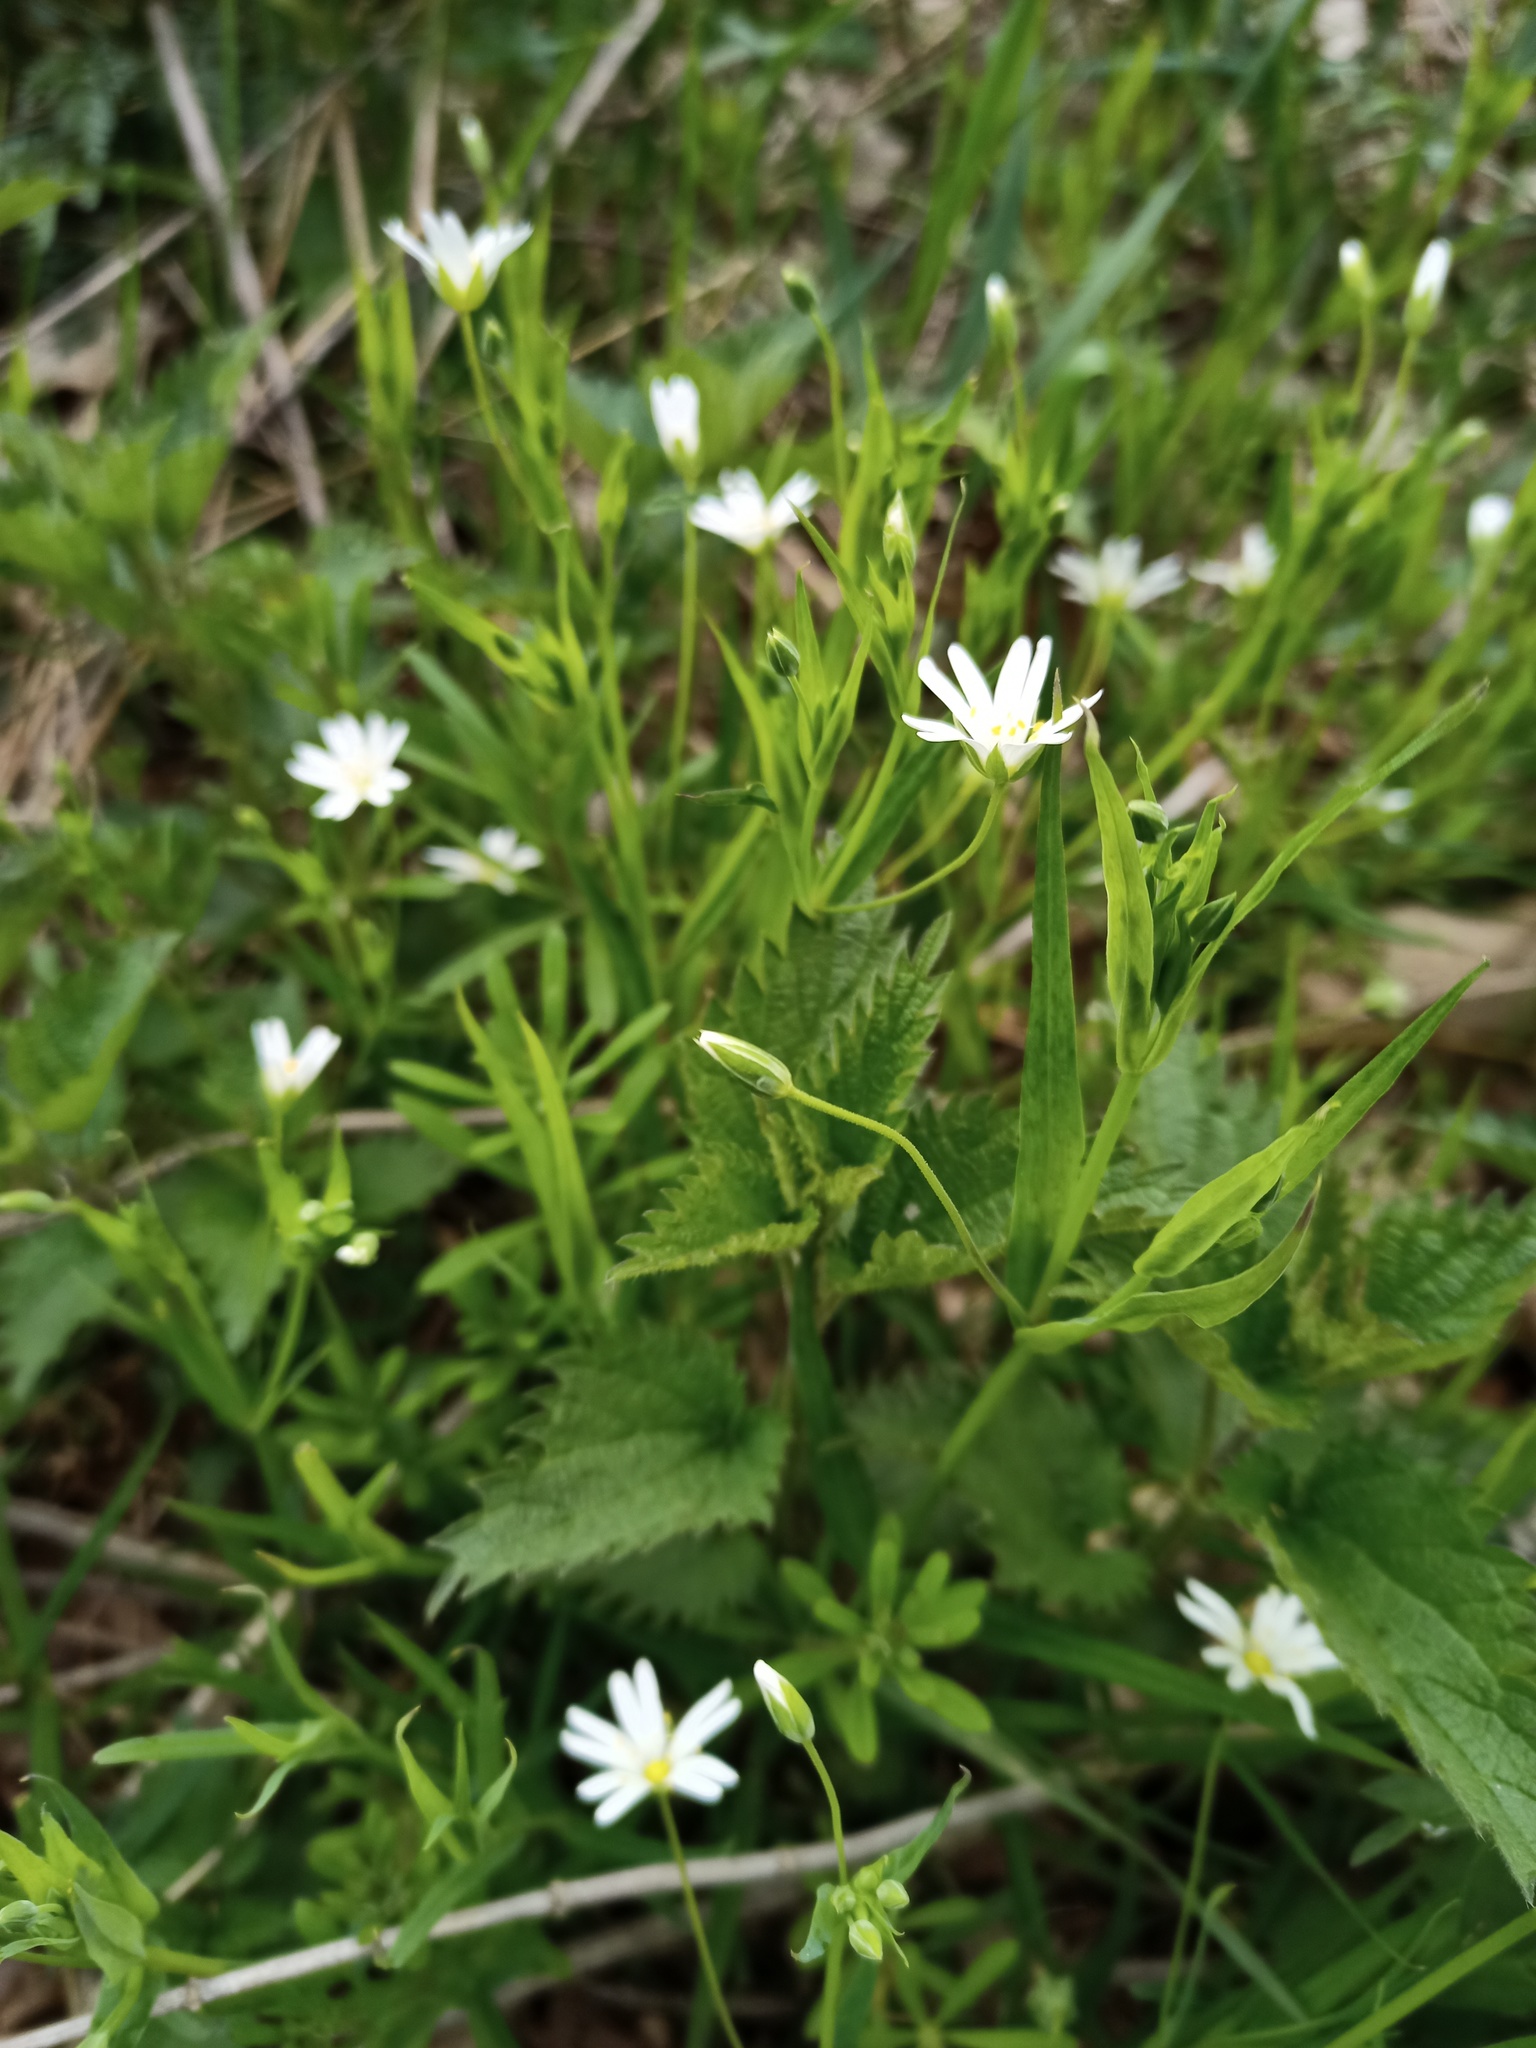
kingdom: Plantae
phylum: Tracheophyta
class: Magnoliopsida
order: Caryophyllales
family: Caryophyllaceae
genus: Rabelera
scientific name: Rabelera holostea
